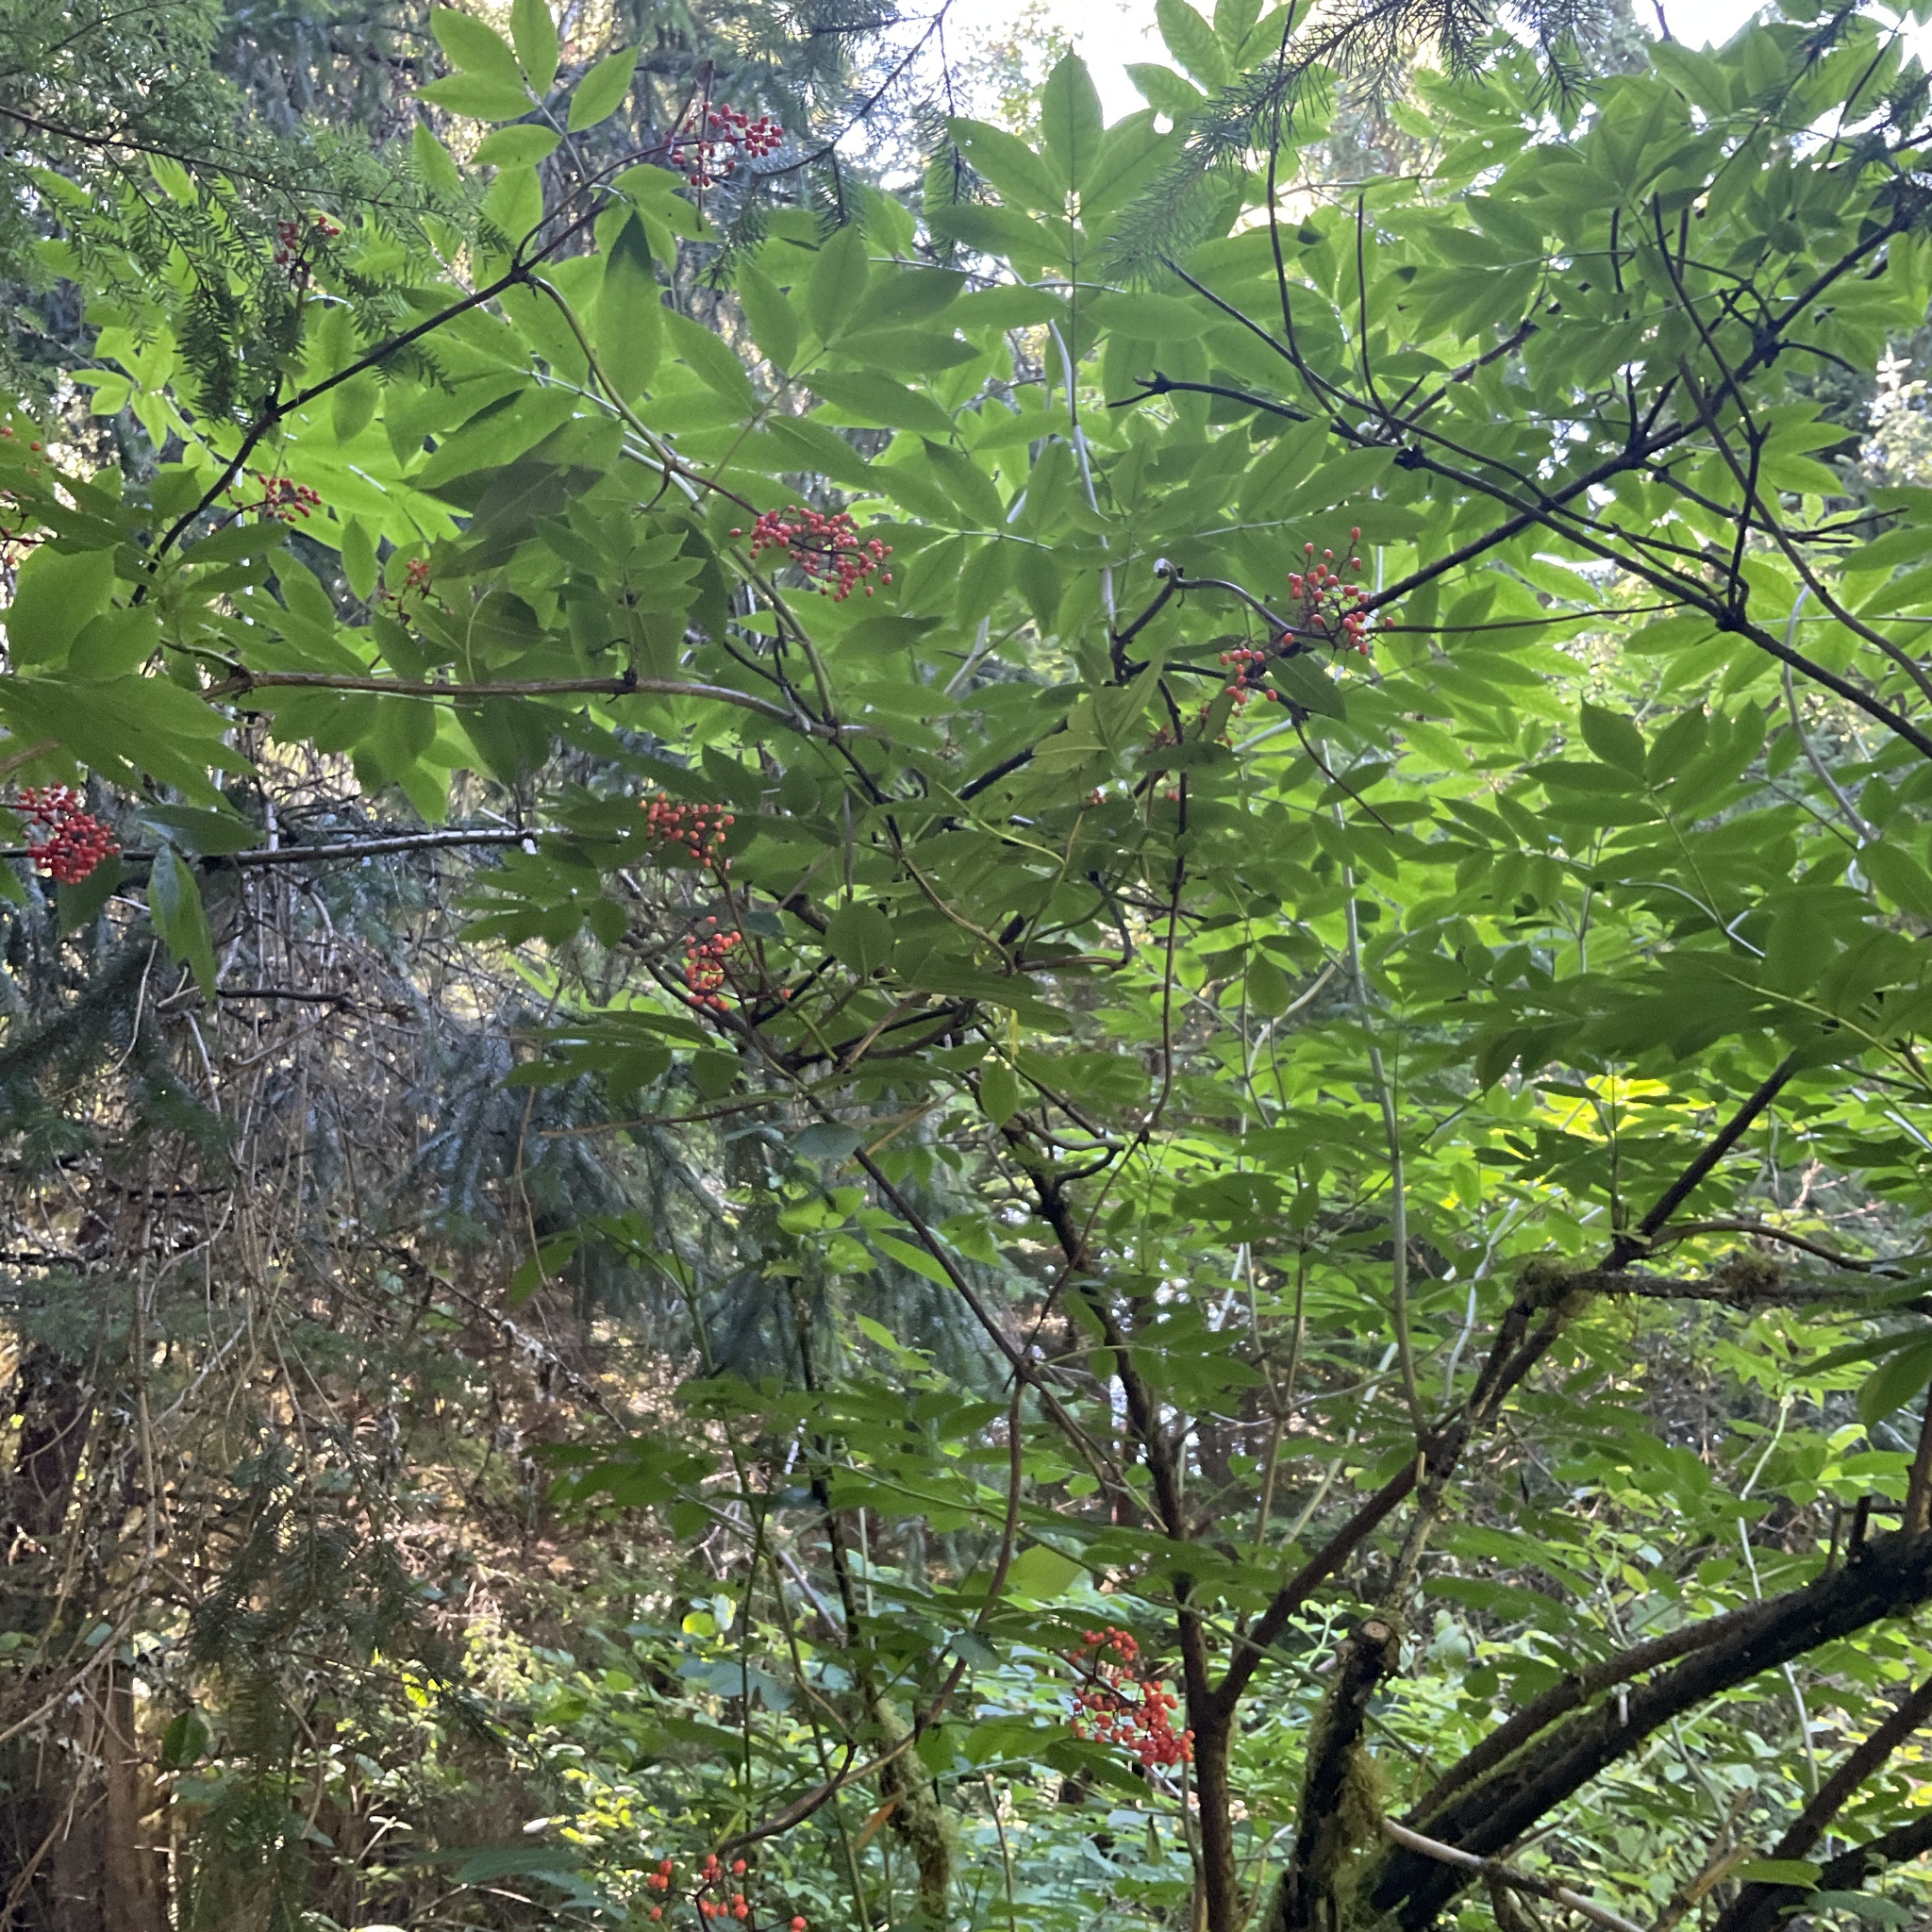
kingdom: Plantae
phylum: Tracheophyta
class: Magnoliopsida
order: Dipsacales
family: Viburnaceae
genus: Sambucus
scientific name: Sambucus racemosa
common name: Red-berried elder
